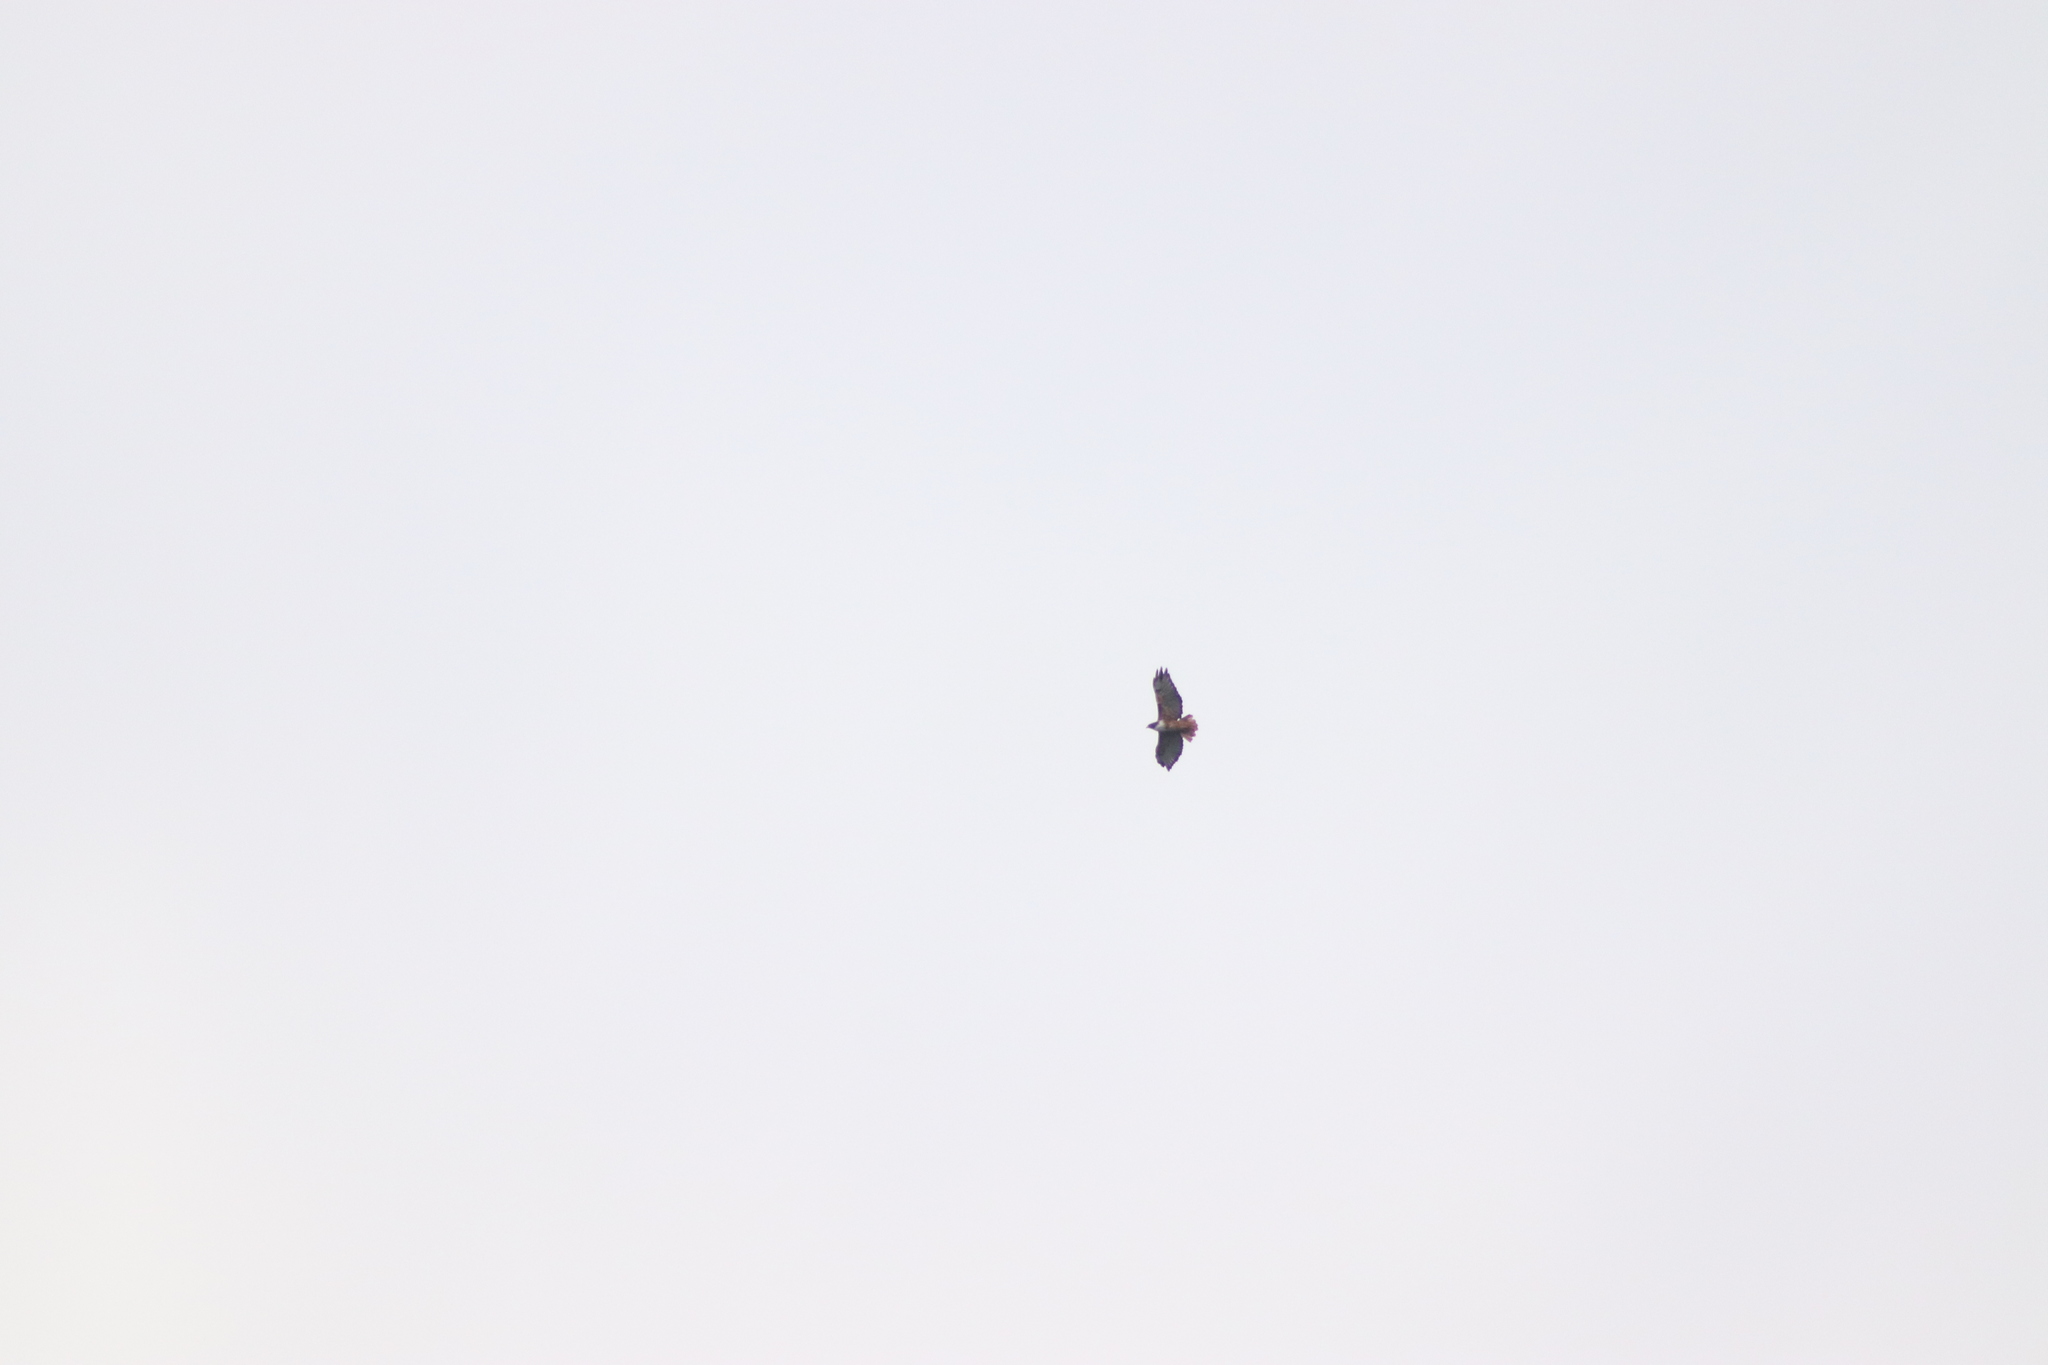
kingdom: Animalia
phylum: Chordata
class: Aves
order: Accipitriformes
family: Accipitridae
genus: Buteo
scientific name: Buteo jamaicensis
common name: Red-tailed hawk
